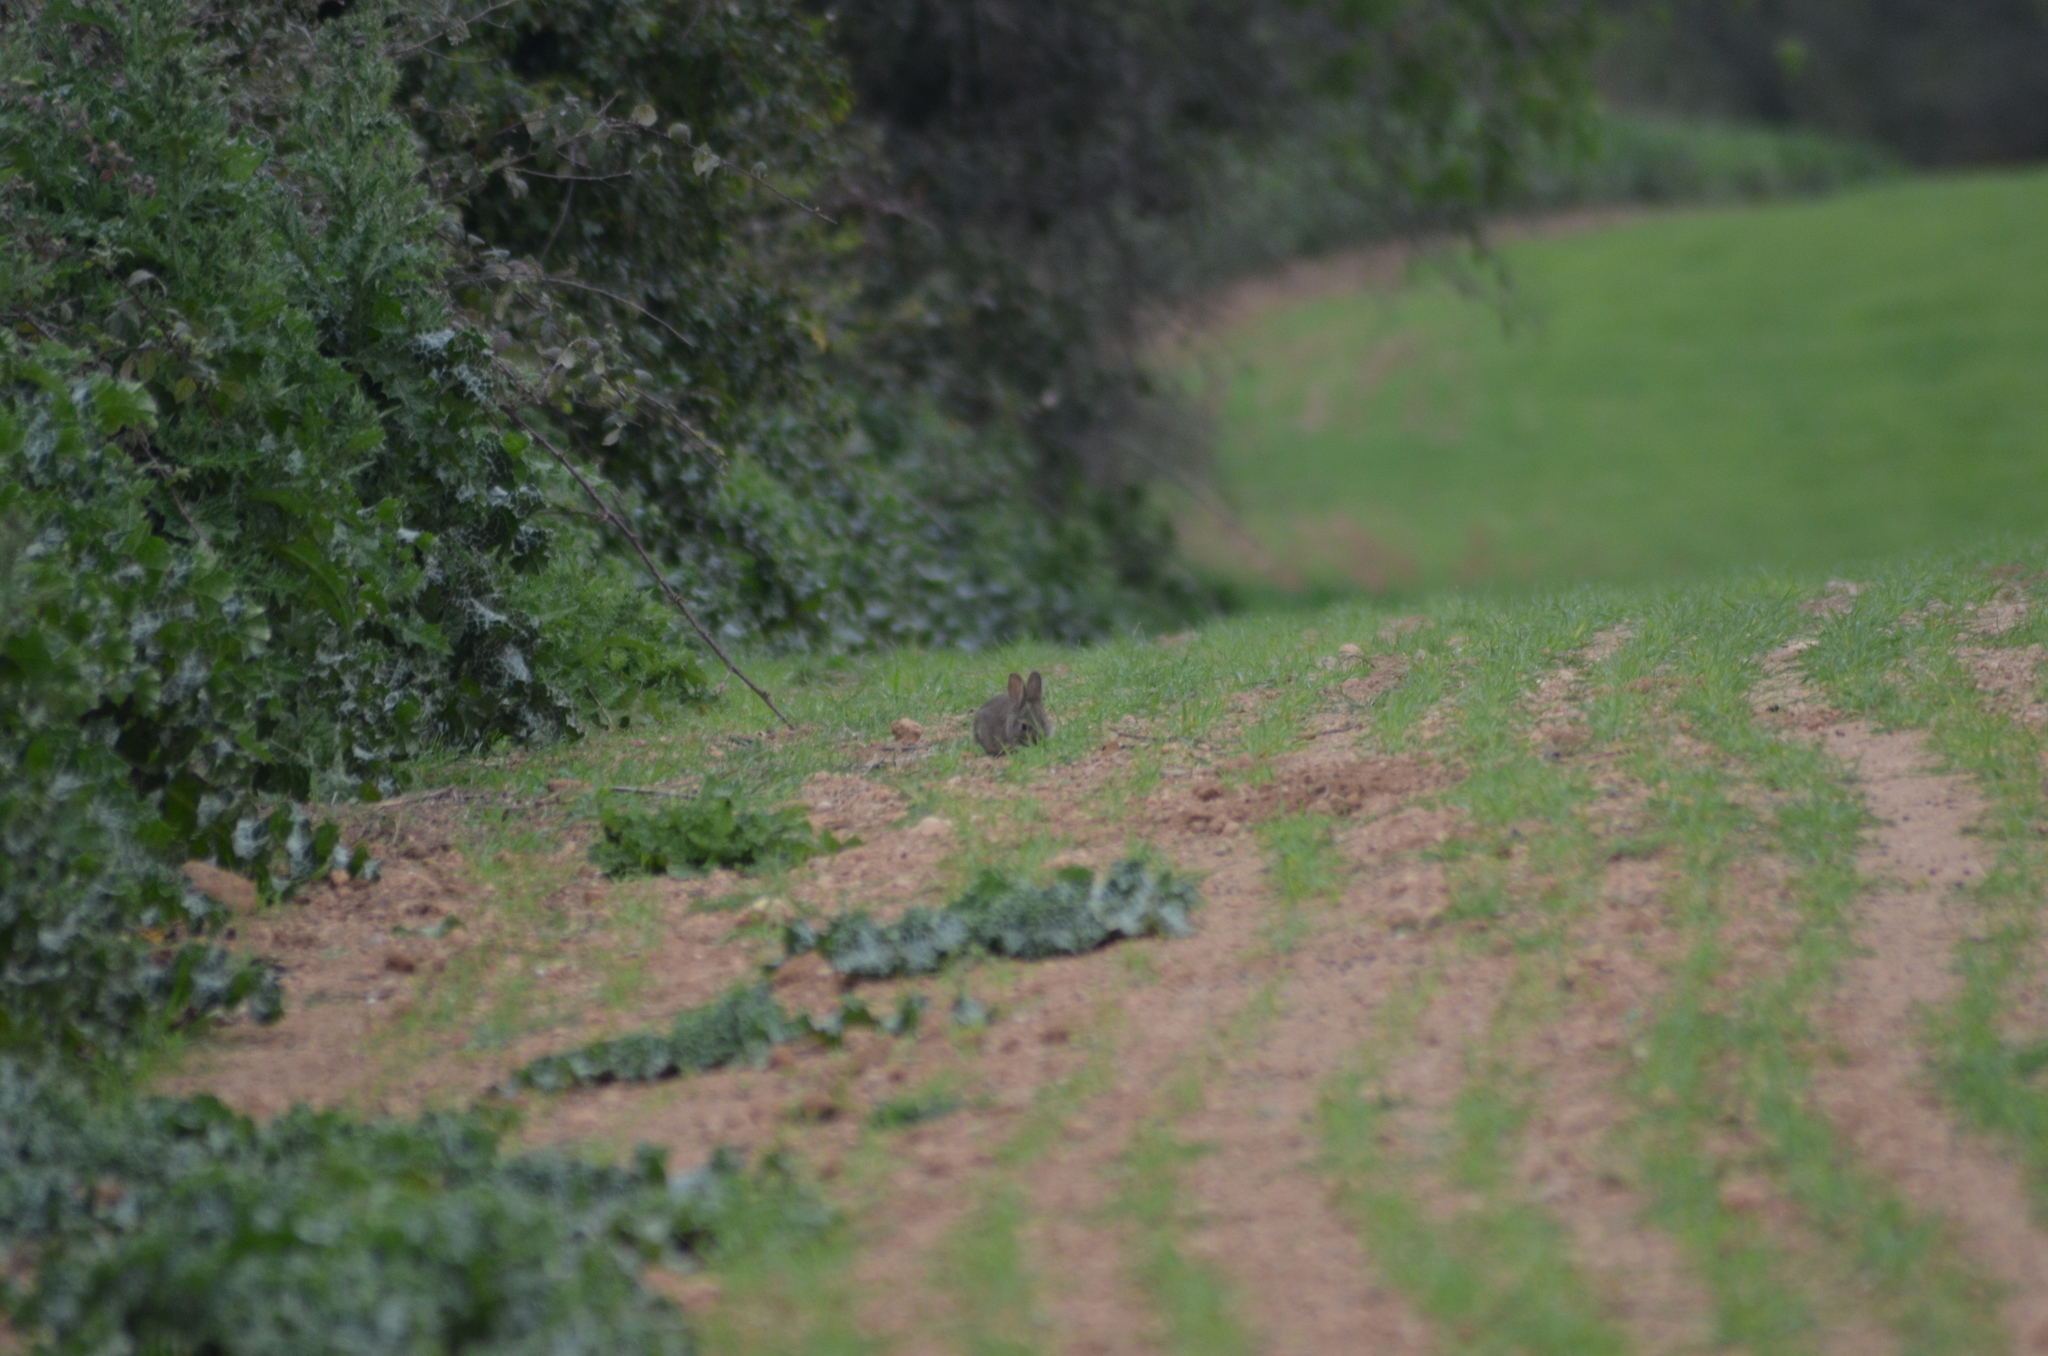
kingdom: Animalia
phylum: Chordata
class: Mammalia
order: Lagomorpha
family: Leporidae
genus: Oryctolagus
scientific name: Oryctolagus cuniculus
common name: European rabbit
